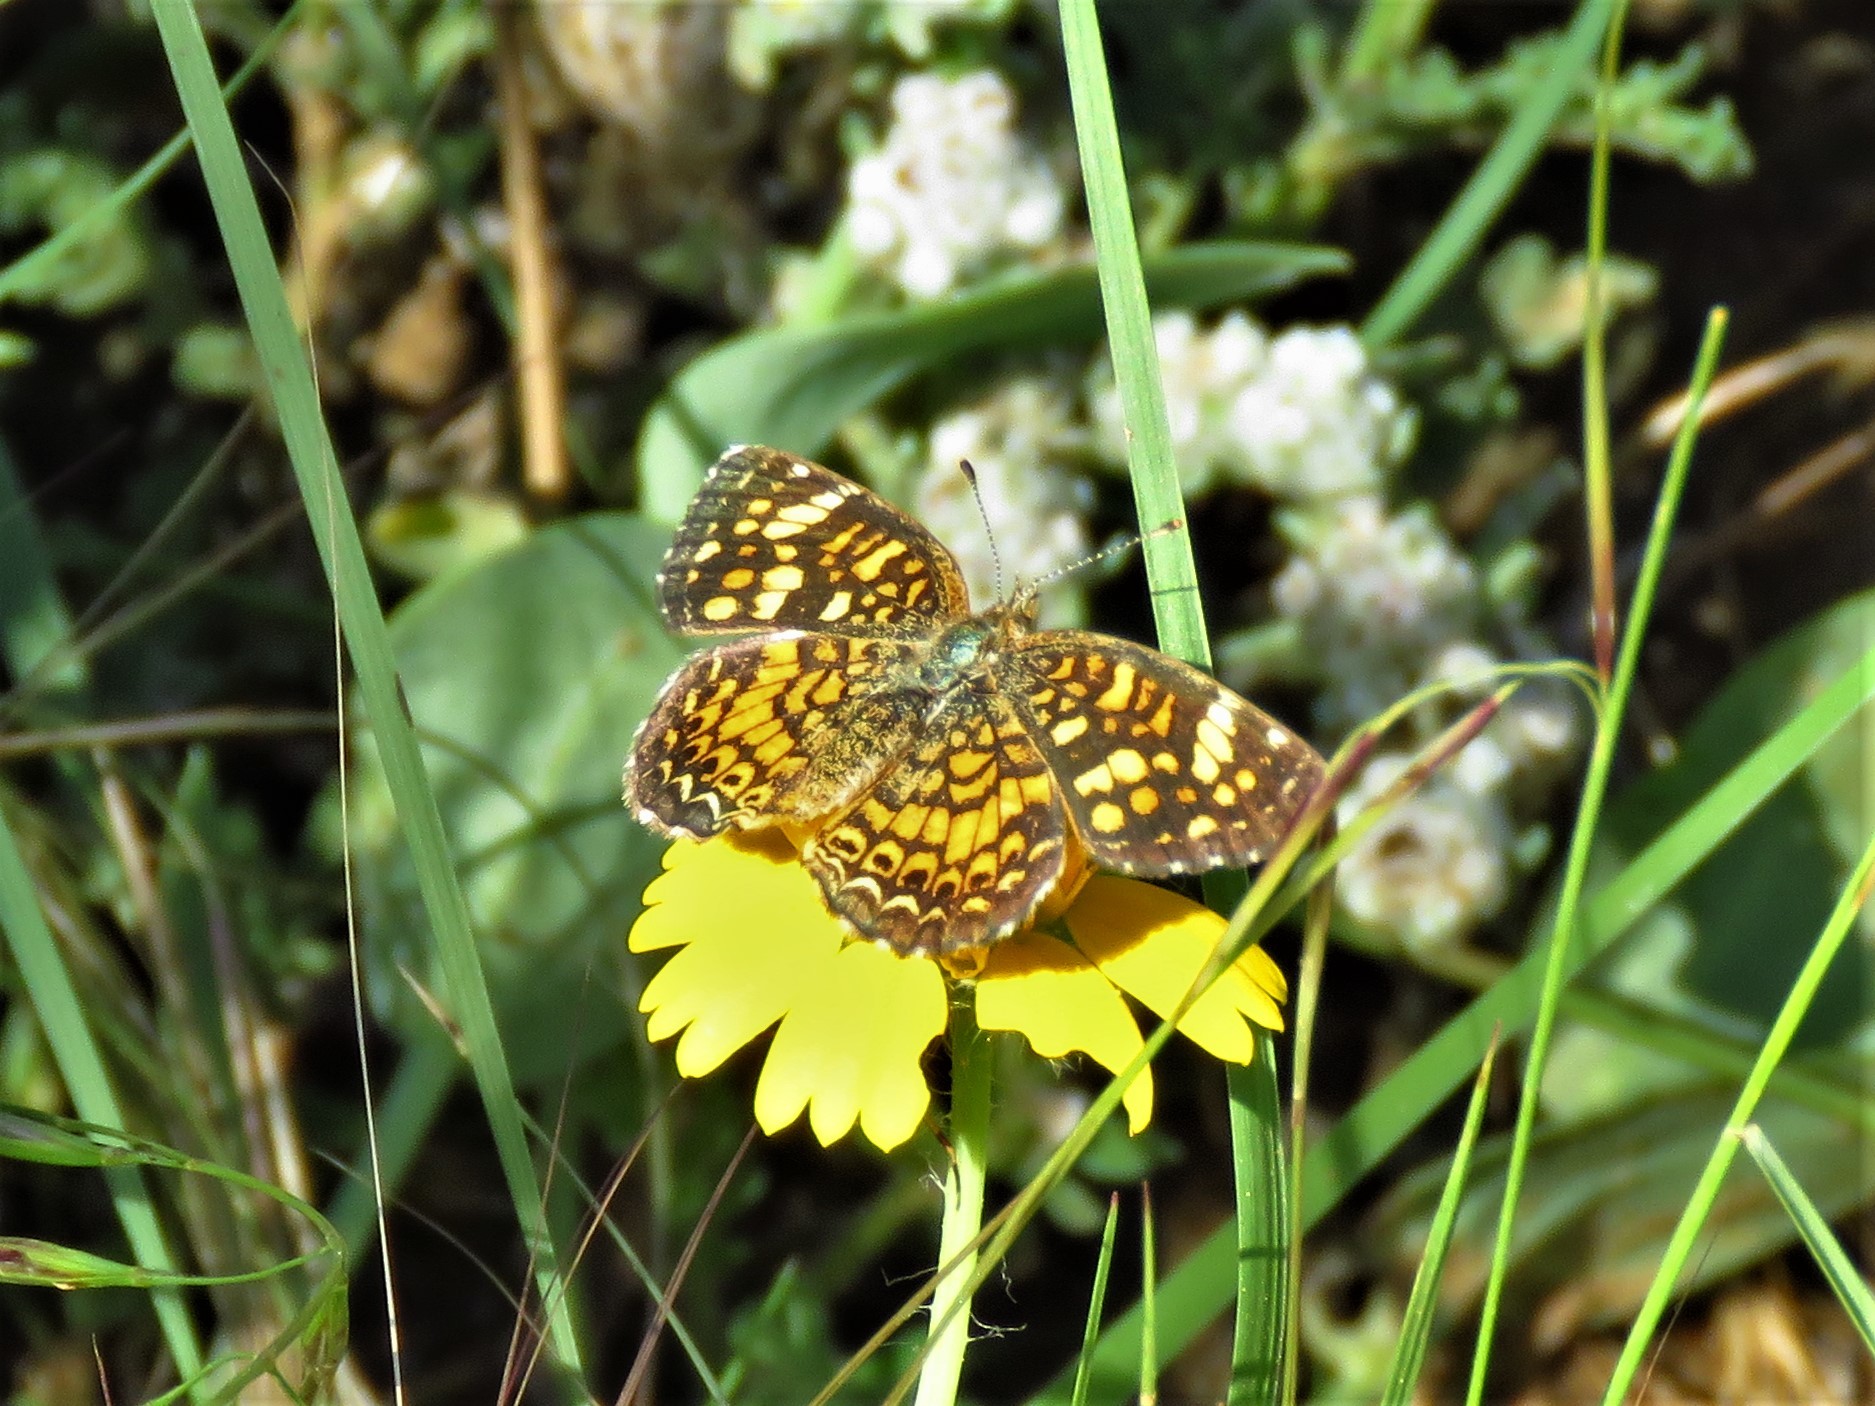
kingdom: Animalia
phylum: Arthropoda
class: Insecta
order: Lepidoptera
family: Nymphalidae
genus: Phyciodes
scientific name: Phyciodes vesta
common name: Vesta crescent
